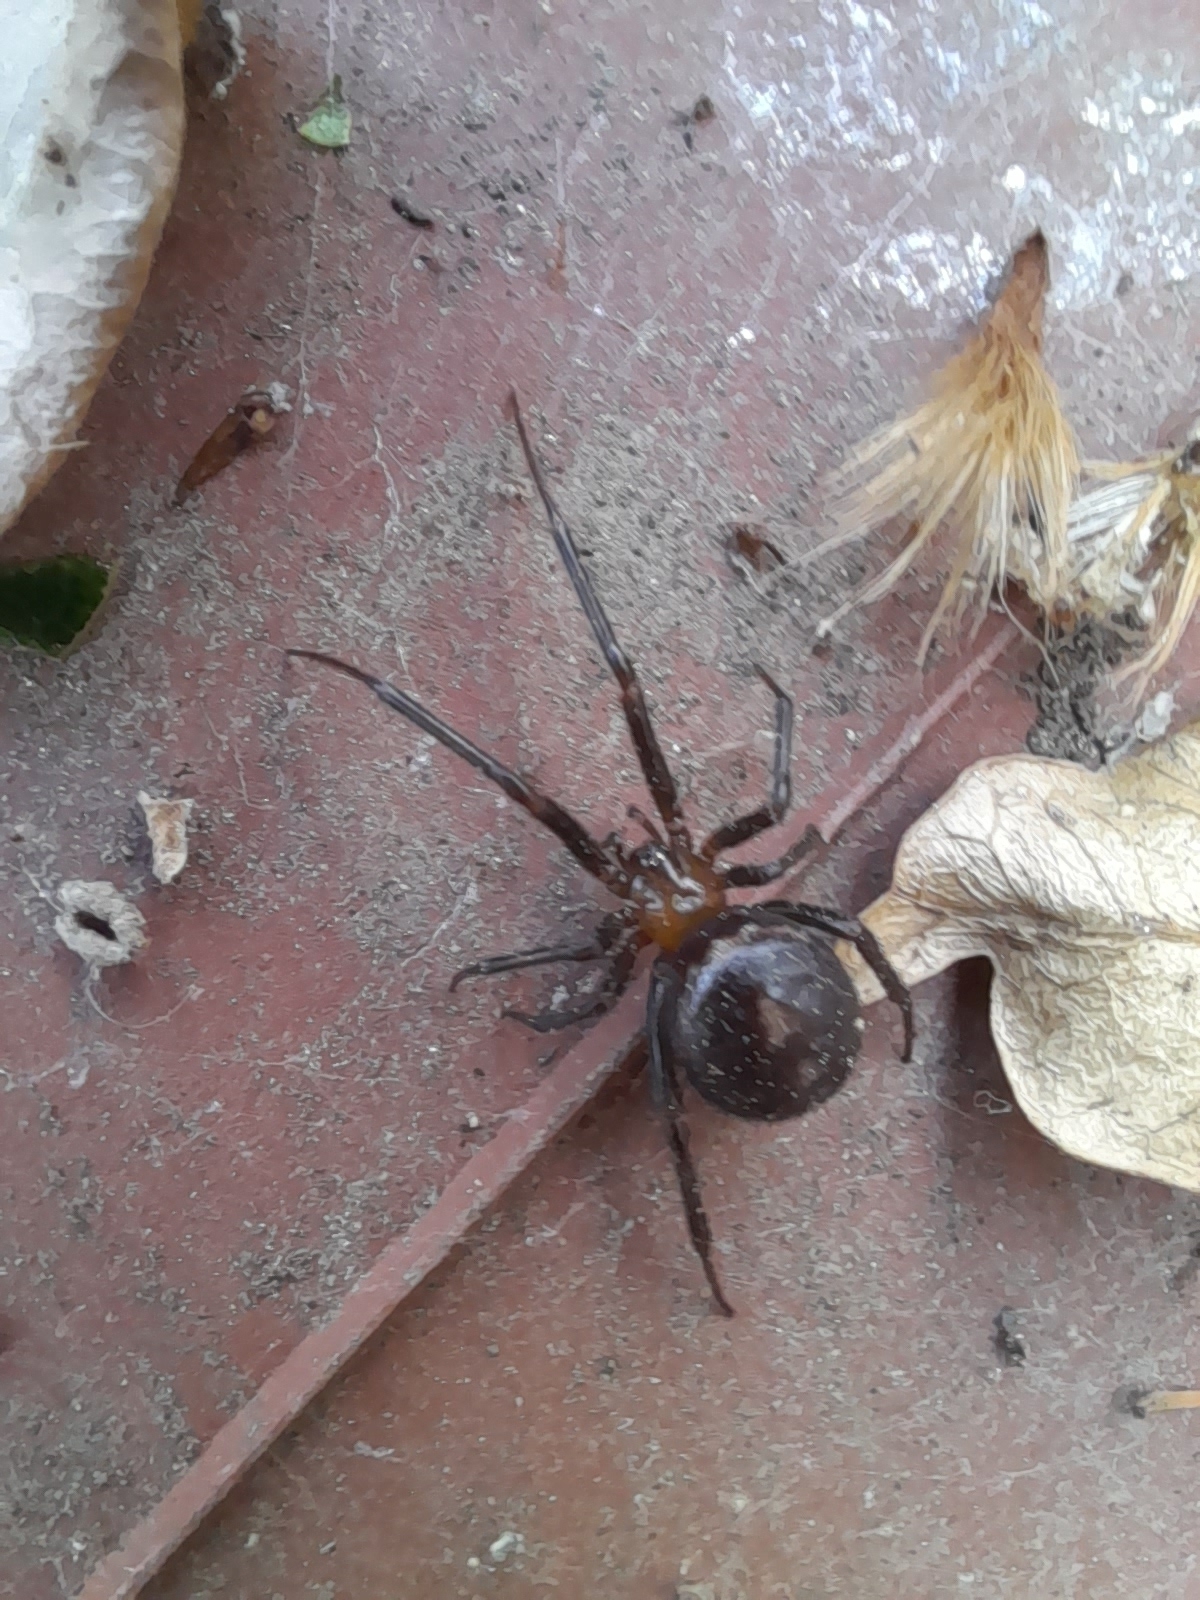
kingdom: Animalia
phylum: Arthropoda
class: Arachnida
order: Araneae
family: Theridiidae
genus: Steatoda
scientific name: Steatoda grossa
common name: False black widow
